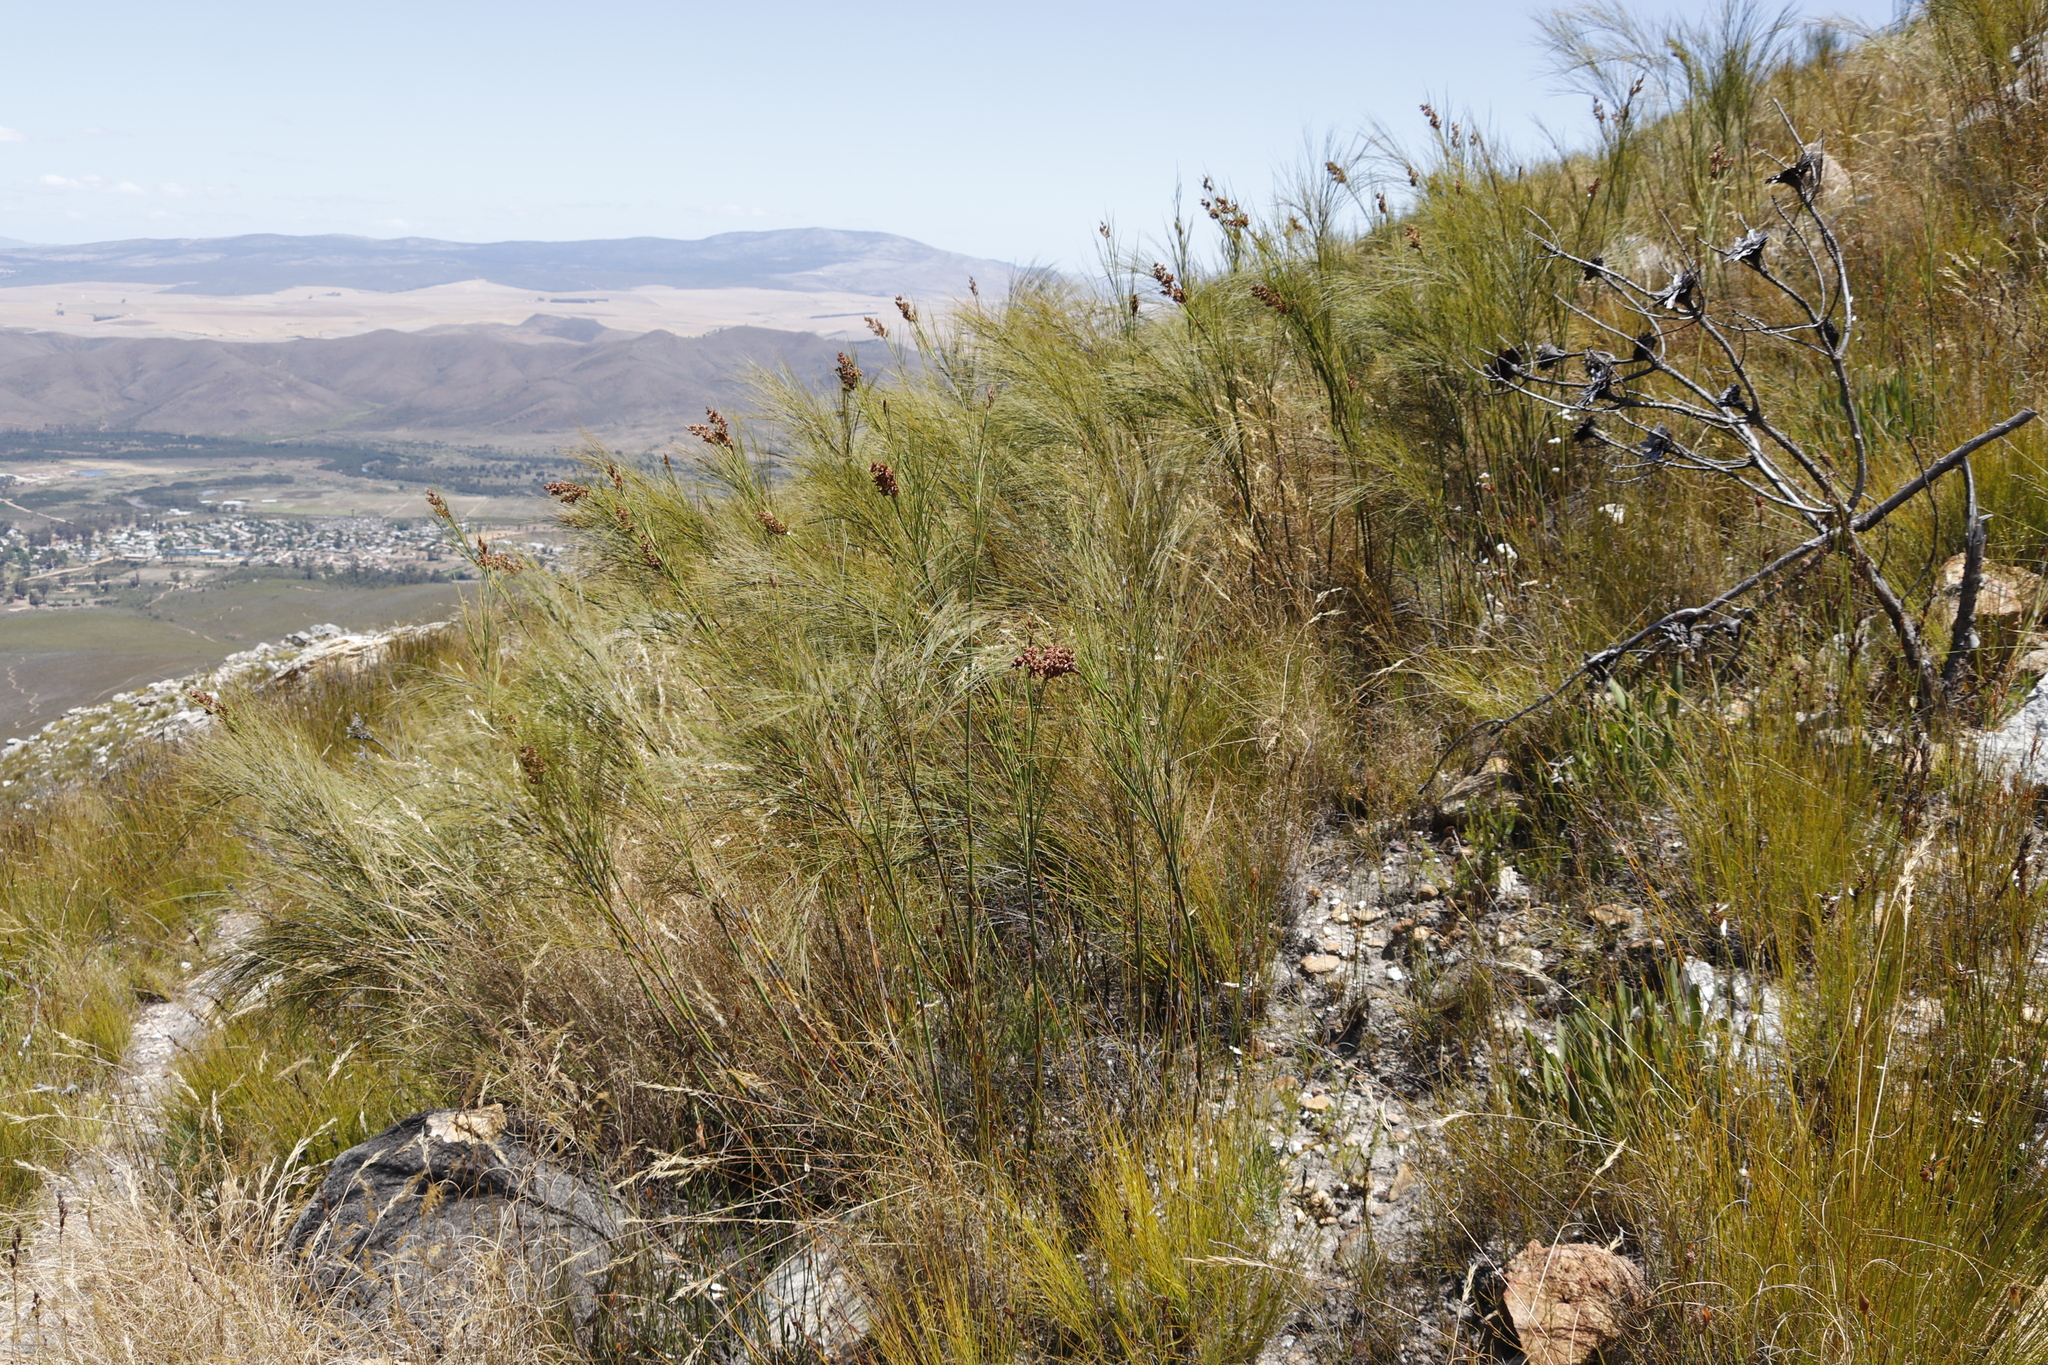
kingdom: Plantae
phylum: Tracheophyta
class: Liliopsida
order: Poales
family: Restionaceae
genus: Cannomois
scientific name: Cannomois virgata
